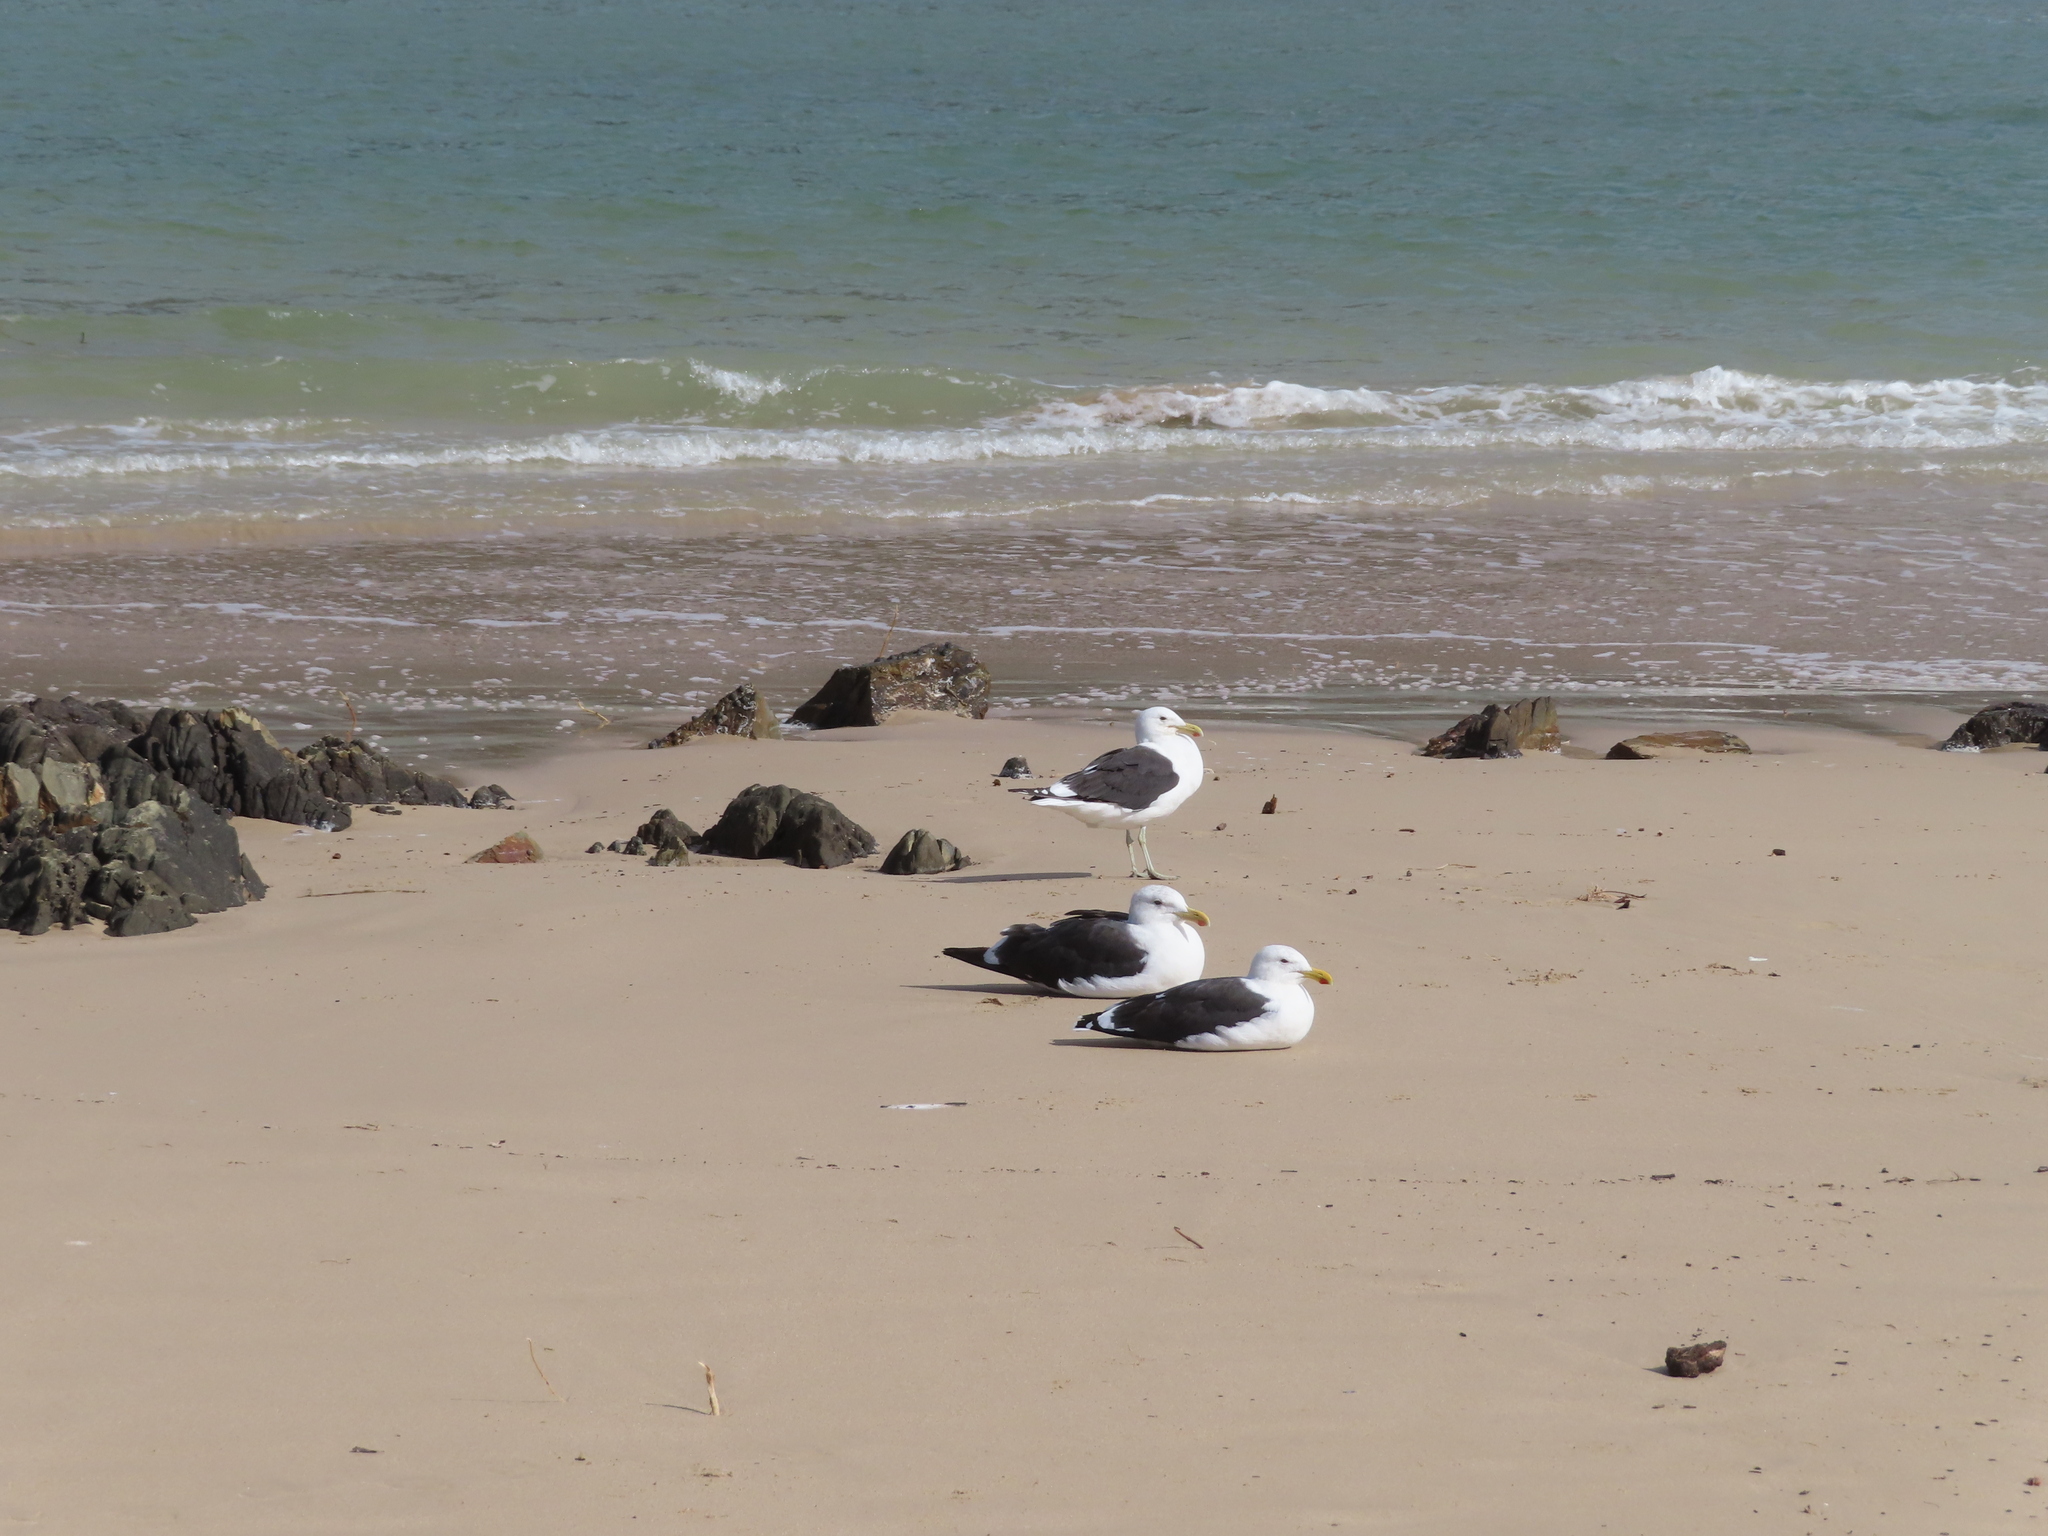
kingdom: Animalia
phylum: Chordata
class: Aves
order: Charadriiformes
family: Laridae
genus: Larus
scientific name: Larus dominicanus
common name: Kelp gull
